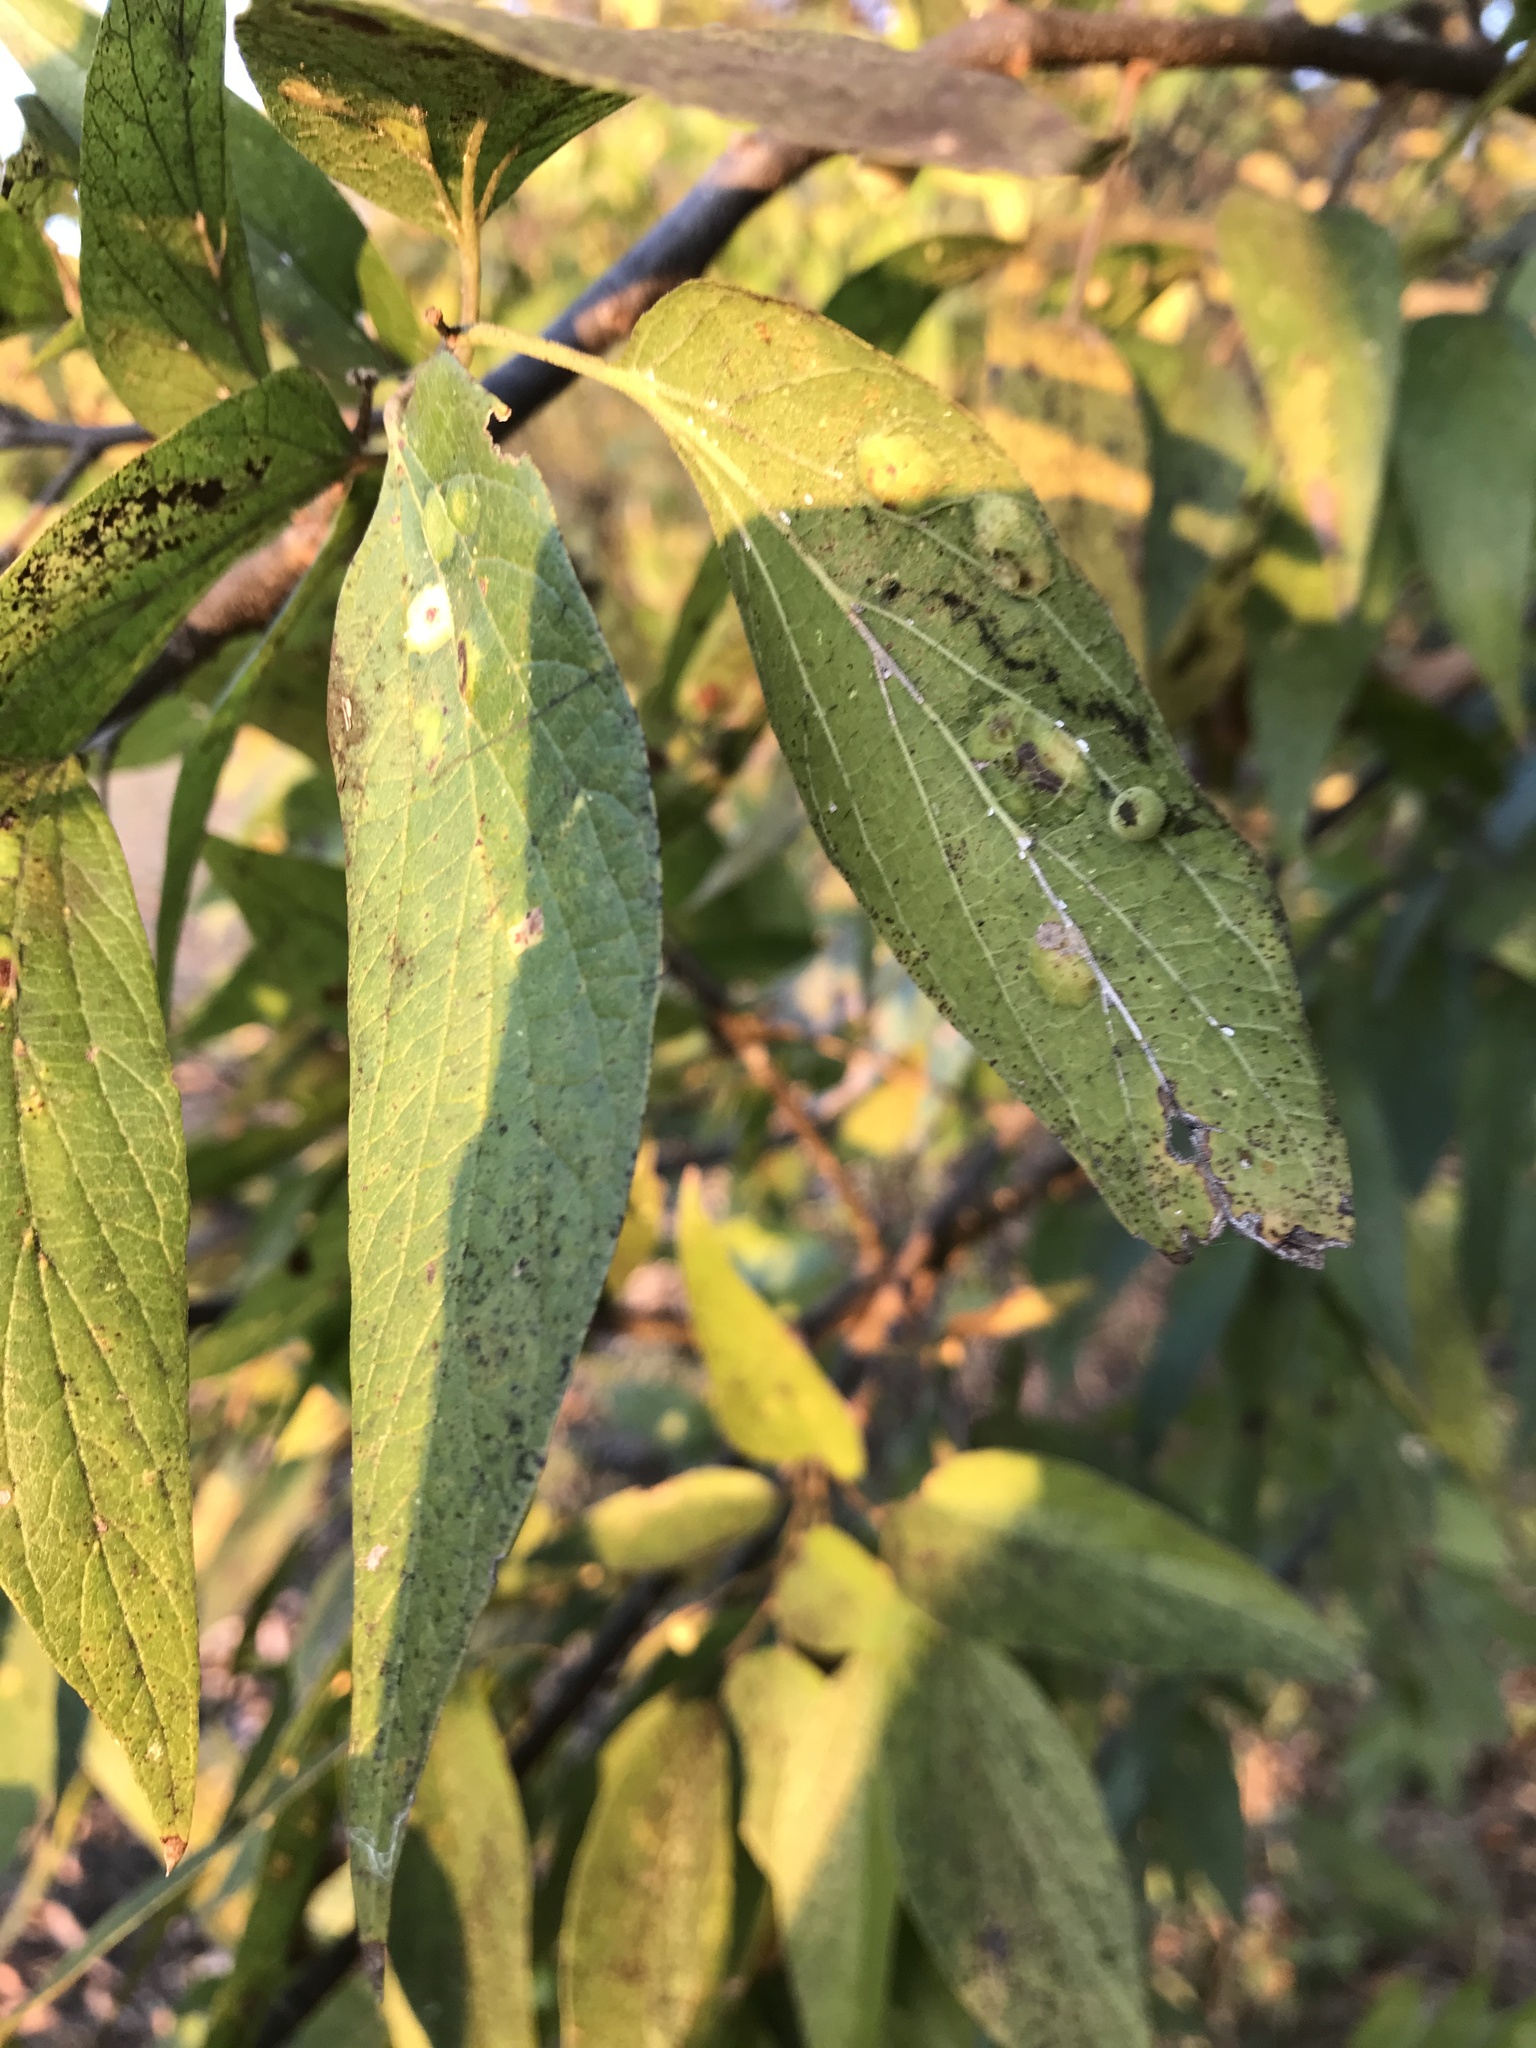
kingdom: Animalia
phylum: Arthropoda
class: Insecta
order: Hemiptera
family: Aphalaridae
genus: Pachypsylla
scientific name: Pachypsylla celtidismamma
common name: Hackberry nipplegall psyllid
